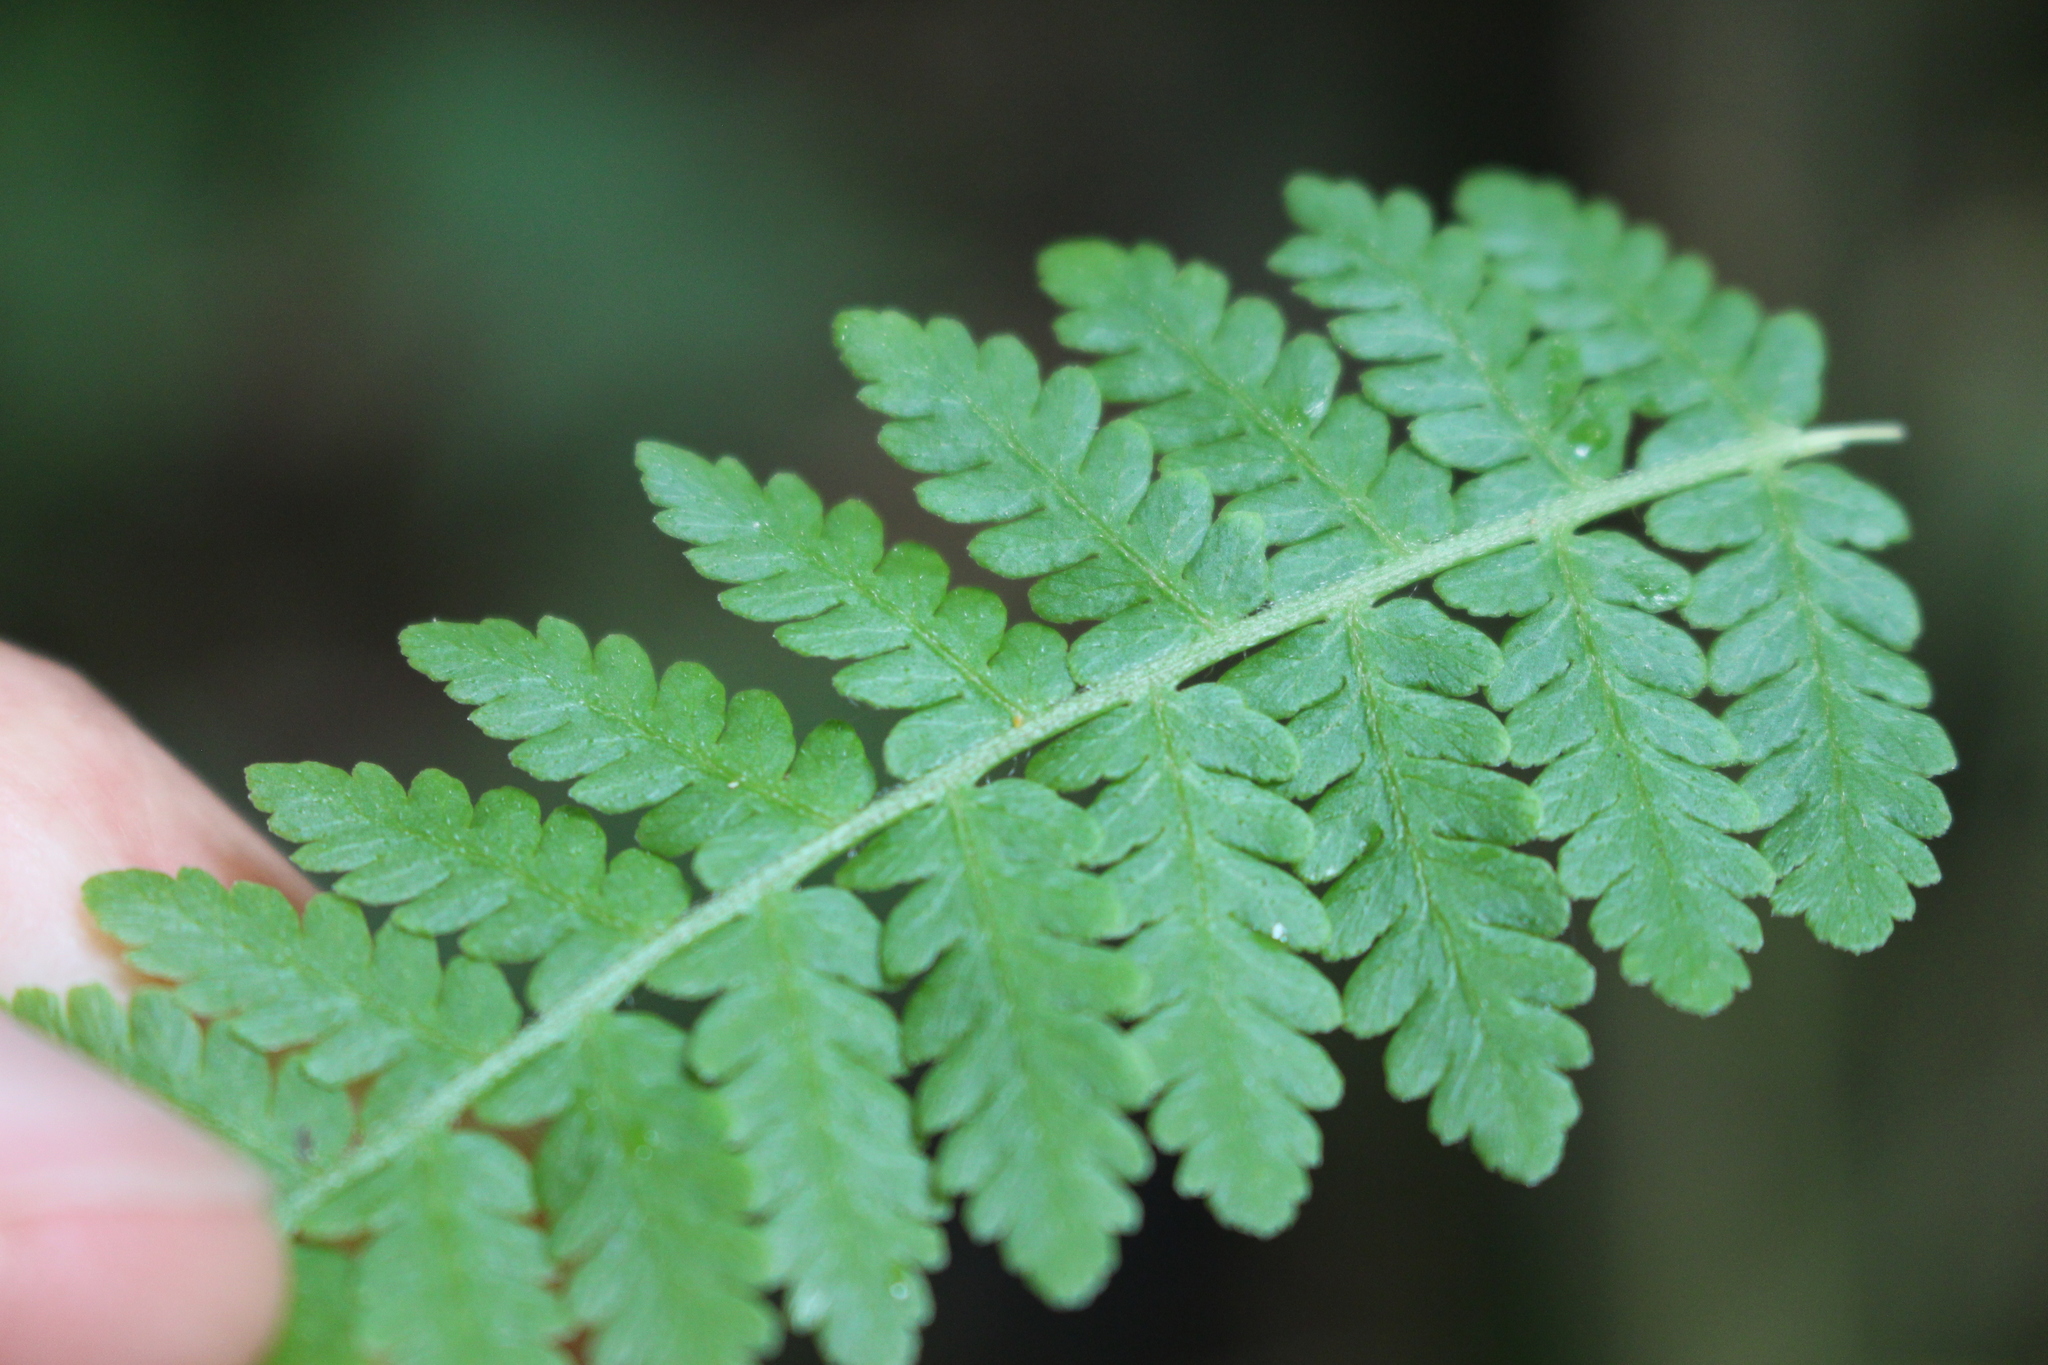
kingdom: Plantae
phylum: Tracheophyta
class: Polypodiopsida
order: Polypodiales
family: Dennstaedtiaceae
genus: Hypolepis
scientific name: Hypolepis ambigua
